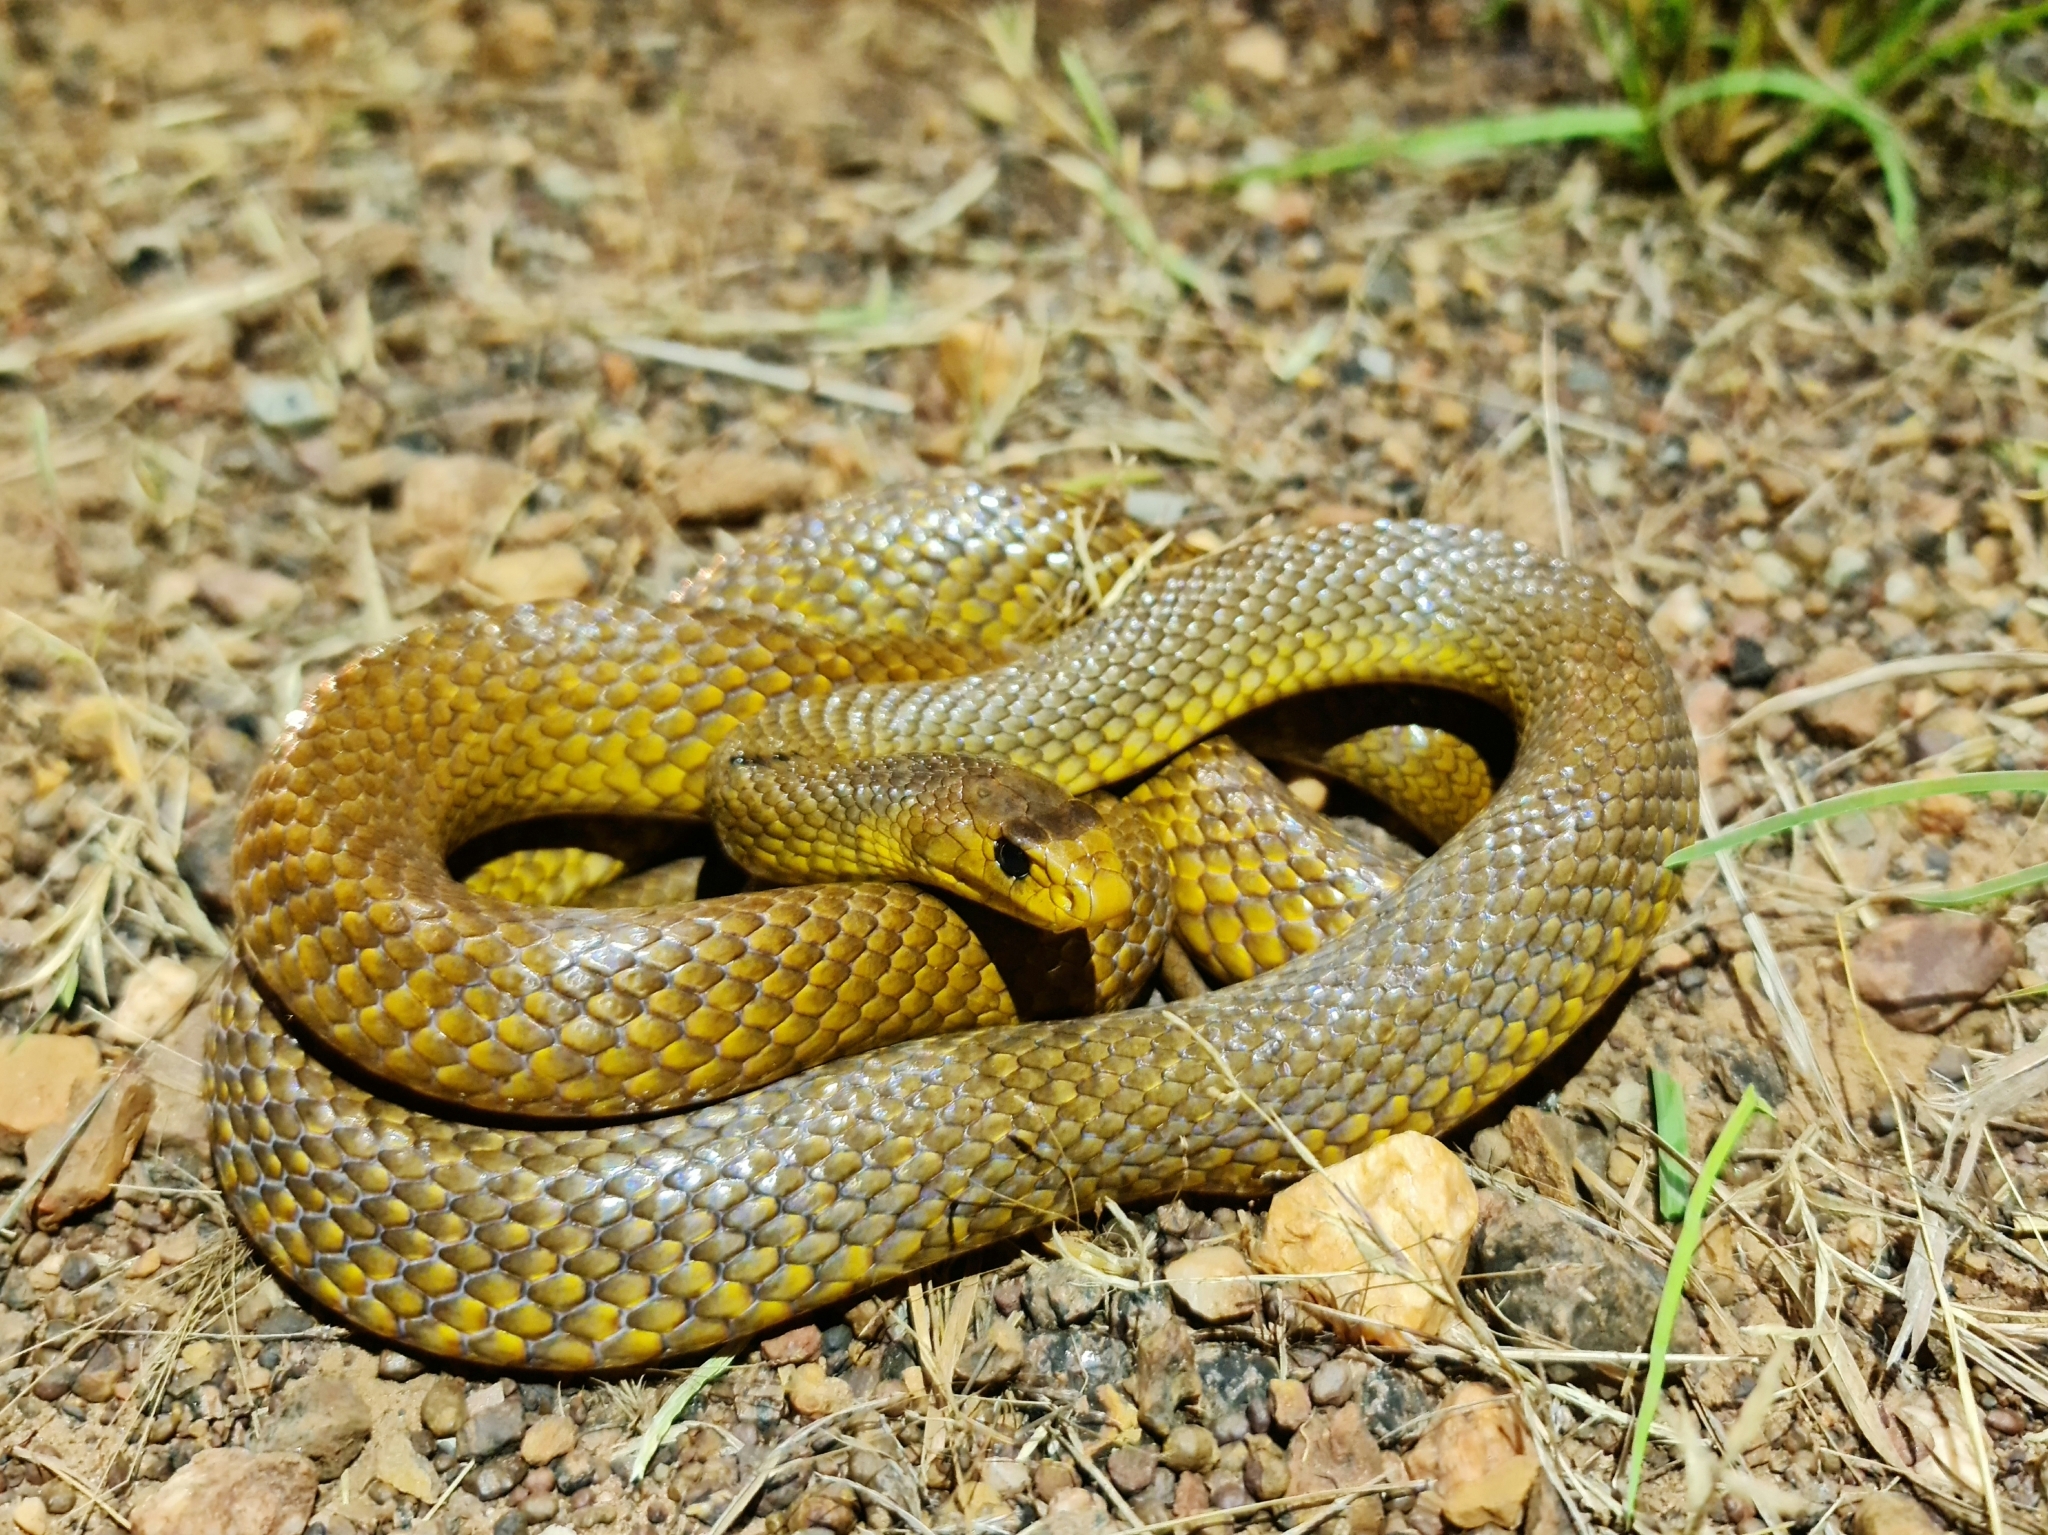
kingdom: Animalia
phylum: Chordata
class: Squamata
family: Elapidae
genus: Pseudonaja
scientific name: Pseudonaja nuchalis
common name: Gwardar
